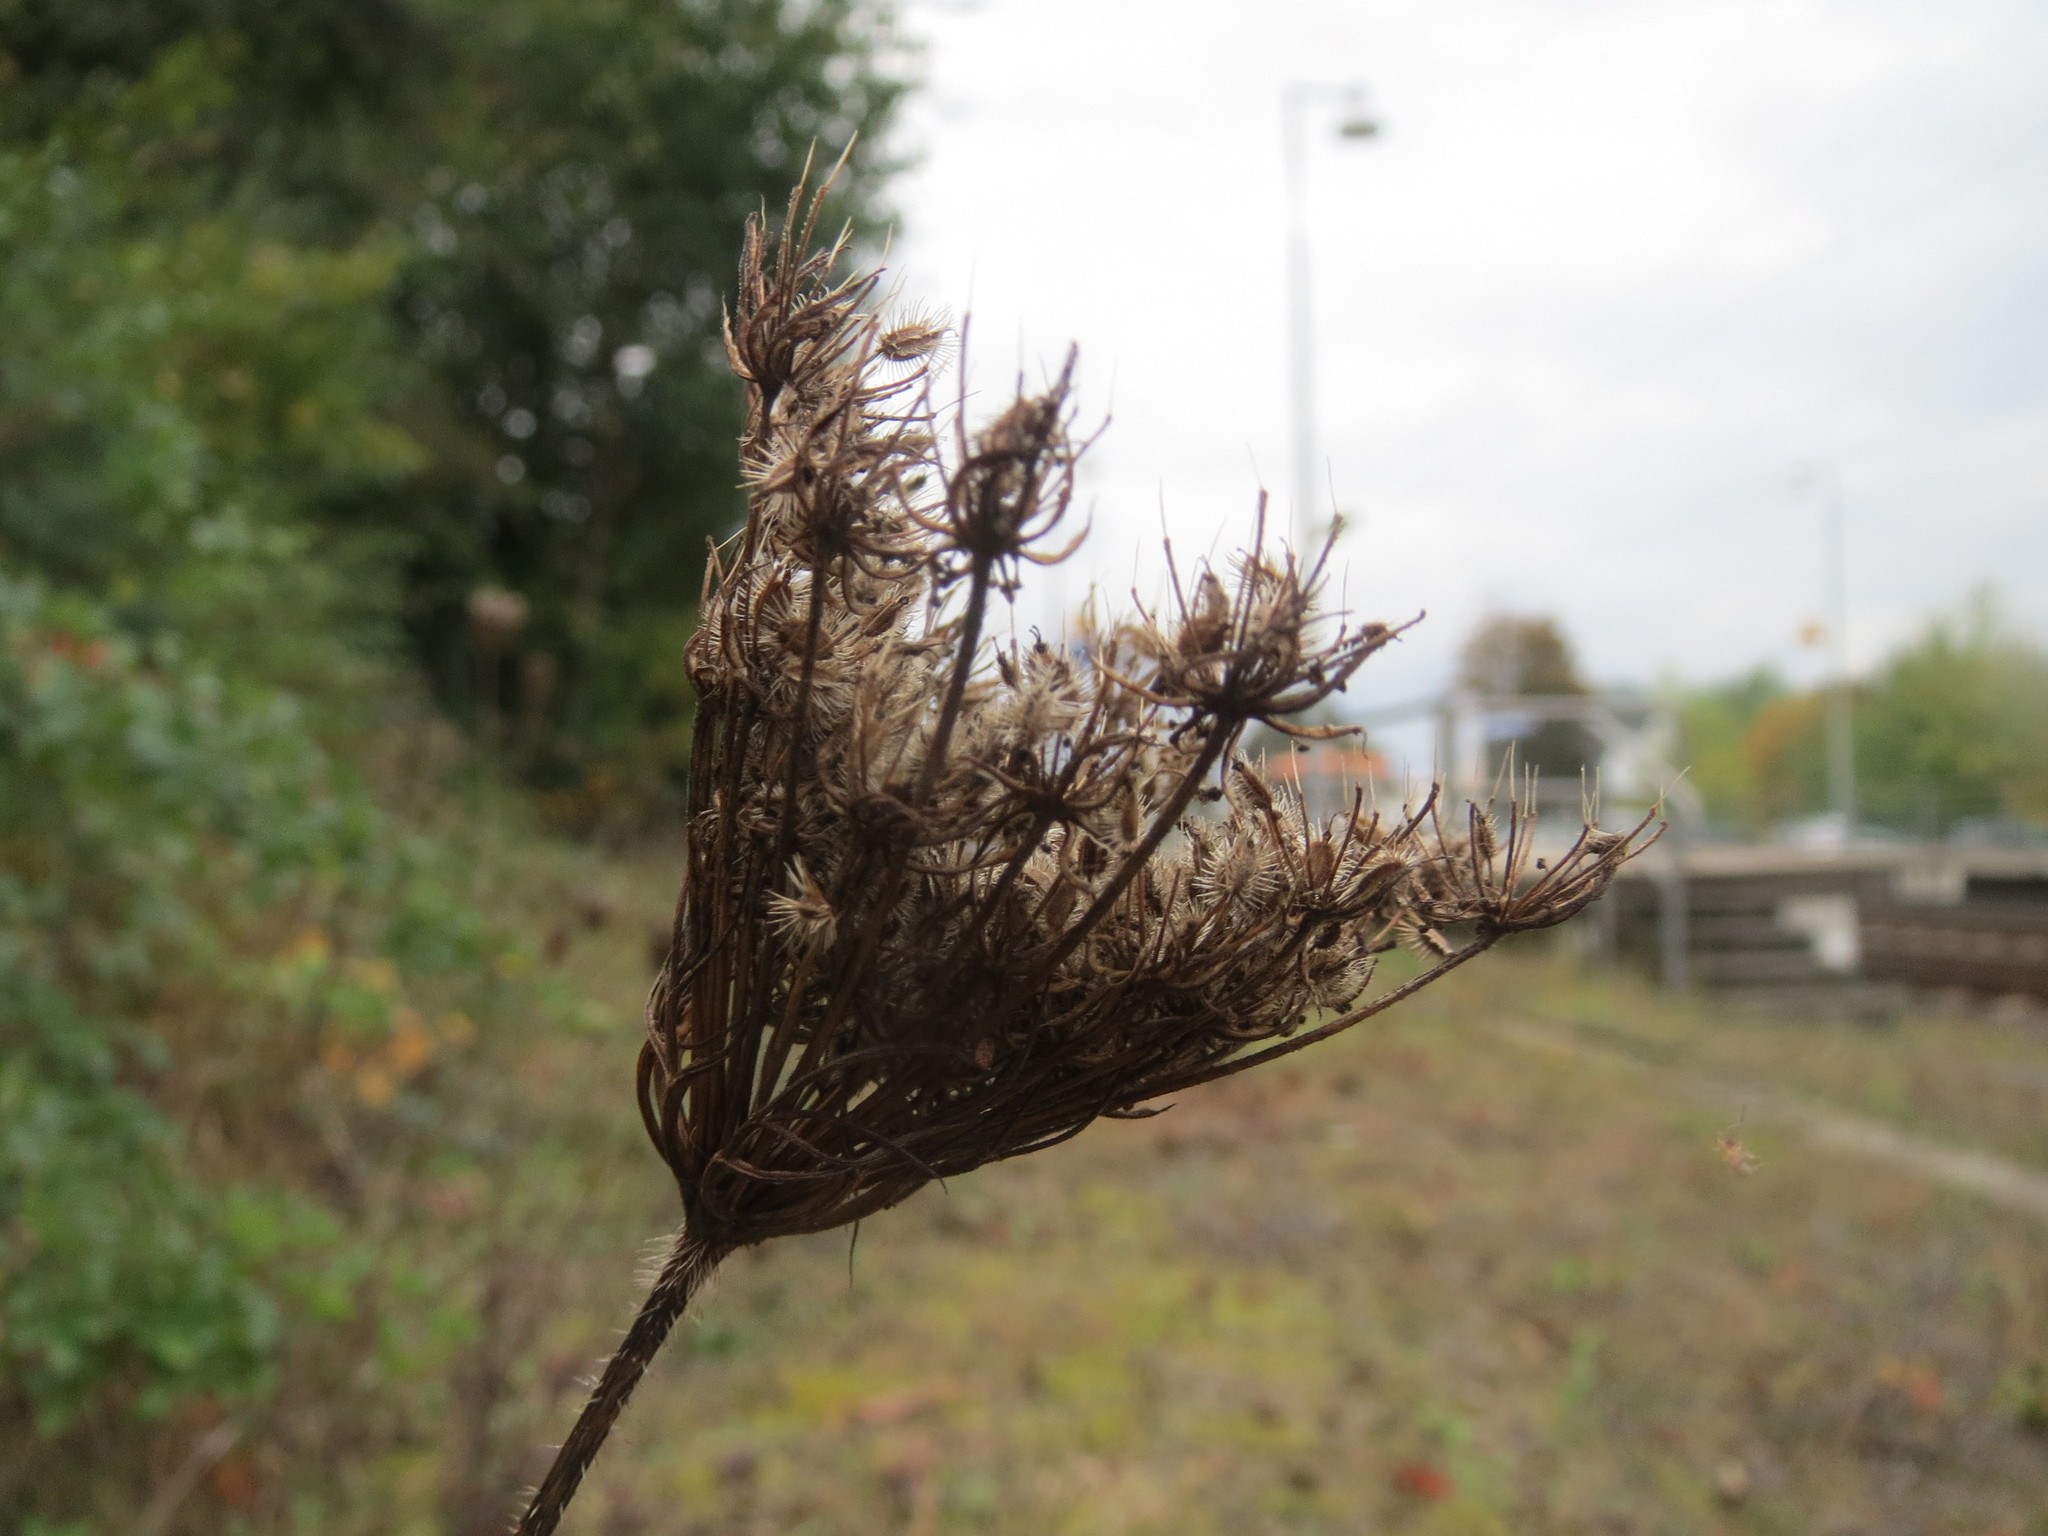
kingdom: Plantae
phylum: Tracheophyta
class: Magnoliopsida
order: Apiales
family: Apiaceae
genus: Daucus
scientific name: Daucus carota
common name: Wild carrot
